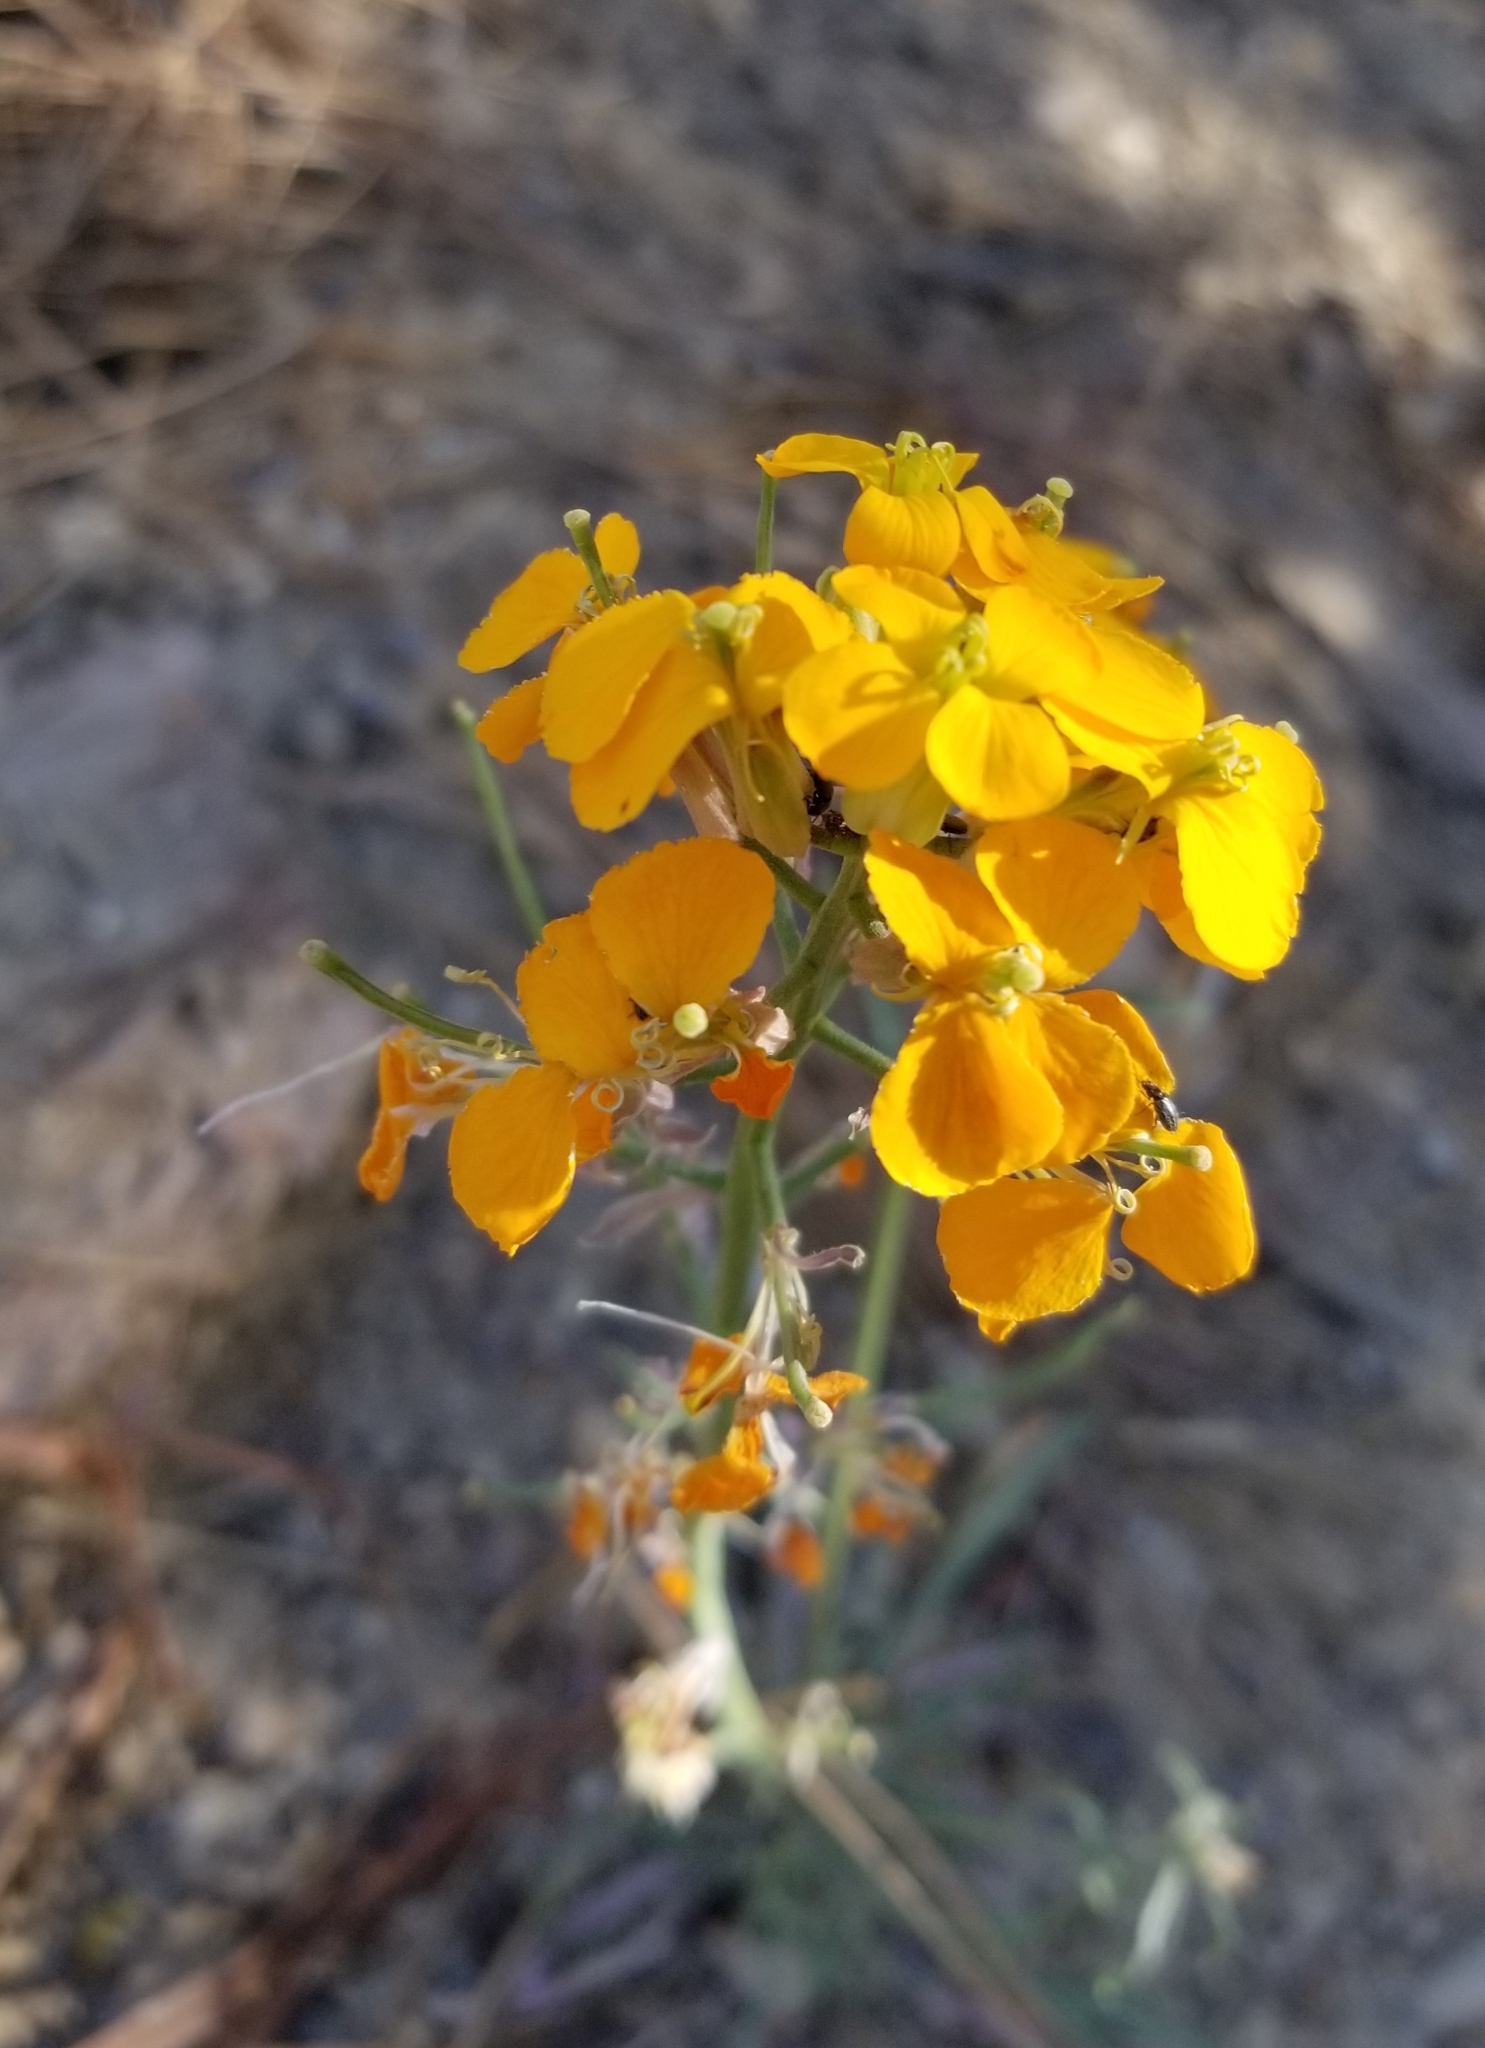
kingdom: Plantae
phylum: Tracheophyta
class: Magnoliopsida
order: Brassicales
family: Brassicaceae
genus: Erysimum
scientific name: Erysimum capitatum
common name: Western wallflower
